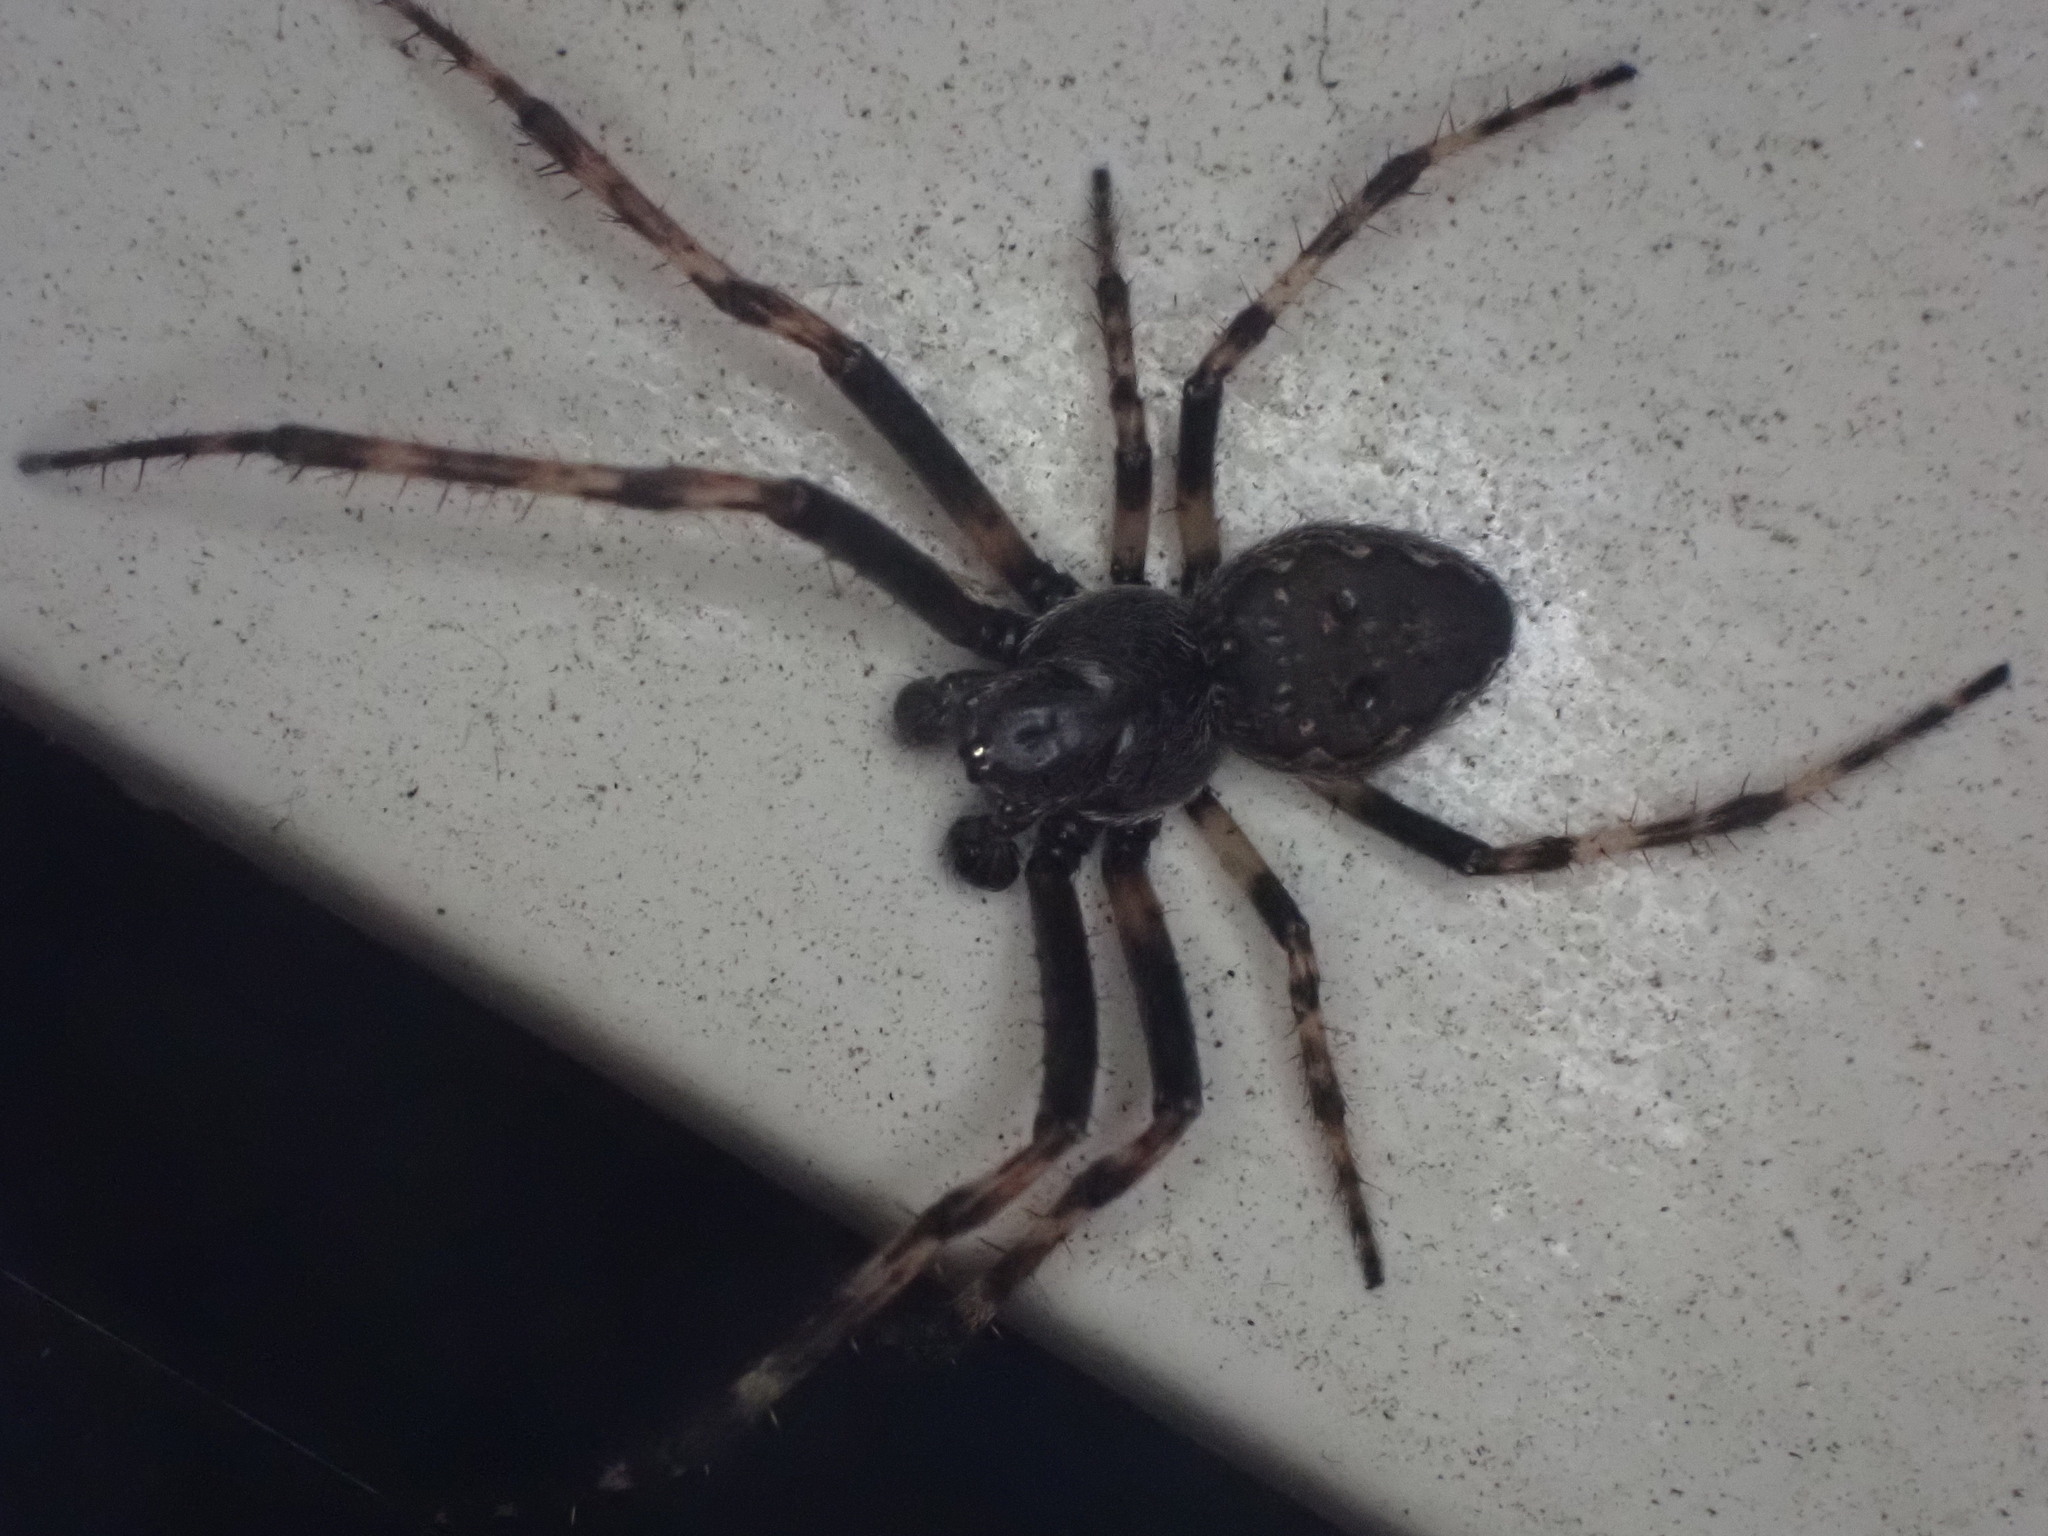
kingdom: Animalia
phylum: Arthropoda
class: Arachnida
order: Araneae
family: Araneidae
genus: Nuctenea
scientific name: Nuctenea umbratica
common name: Toad spider
